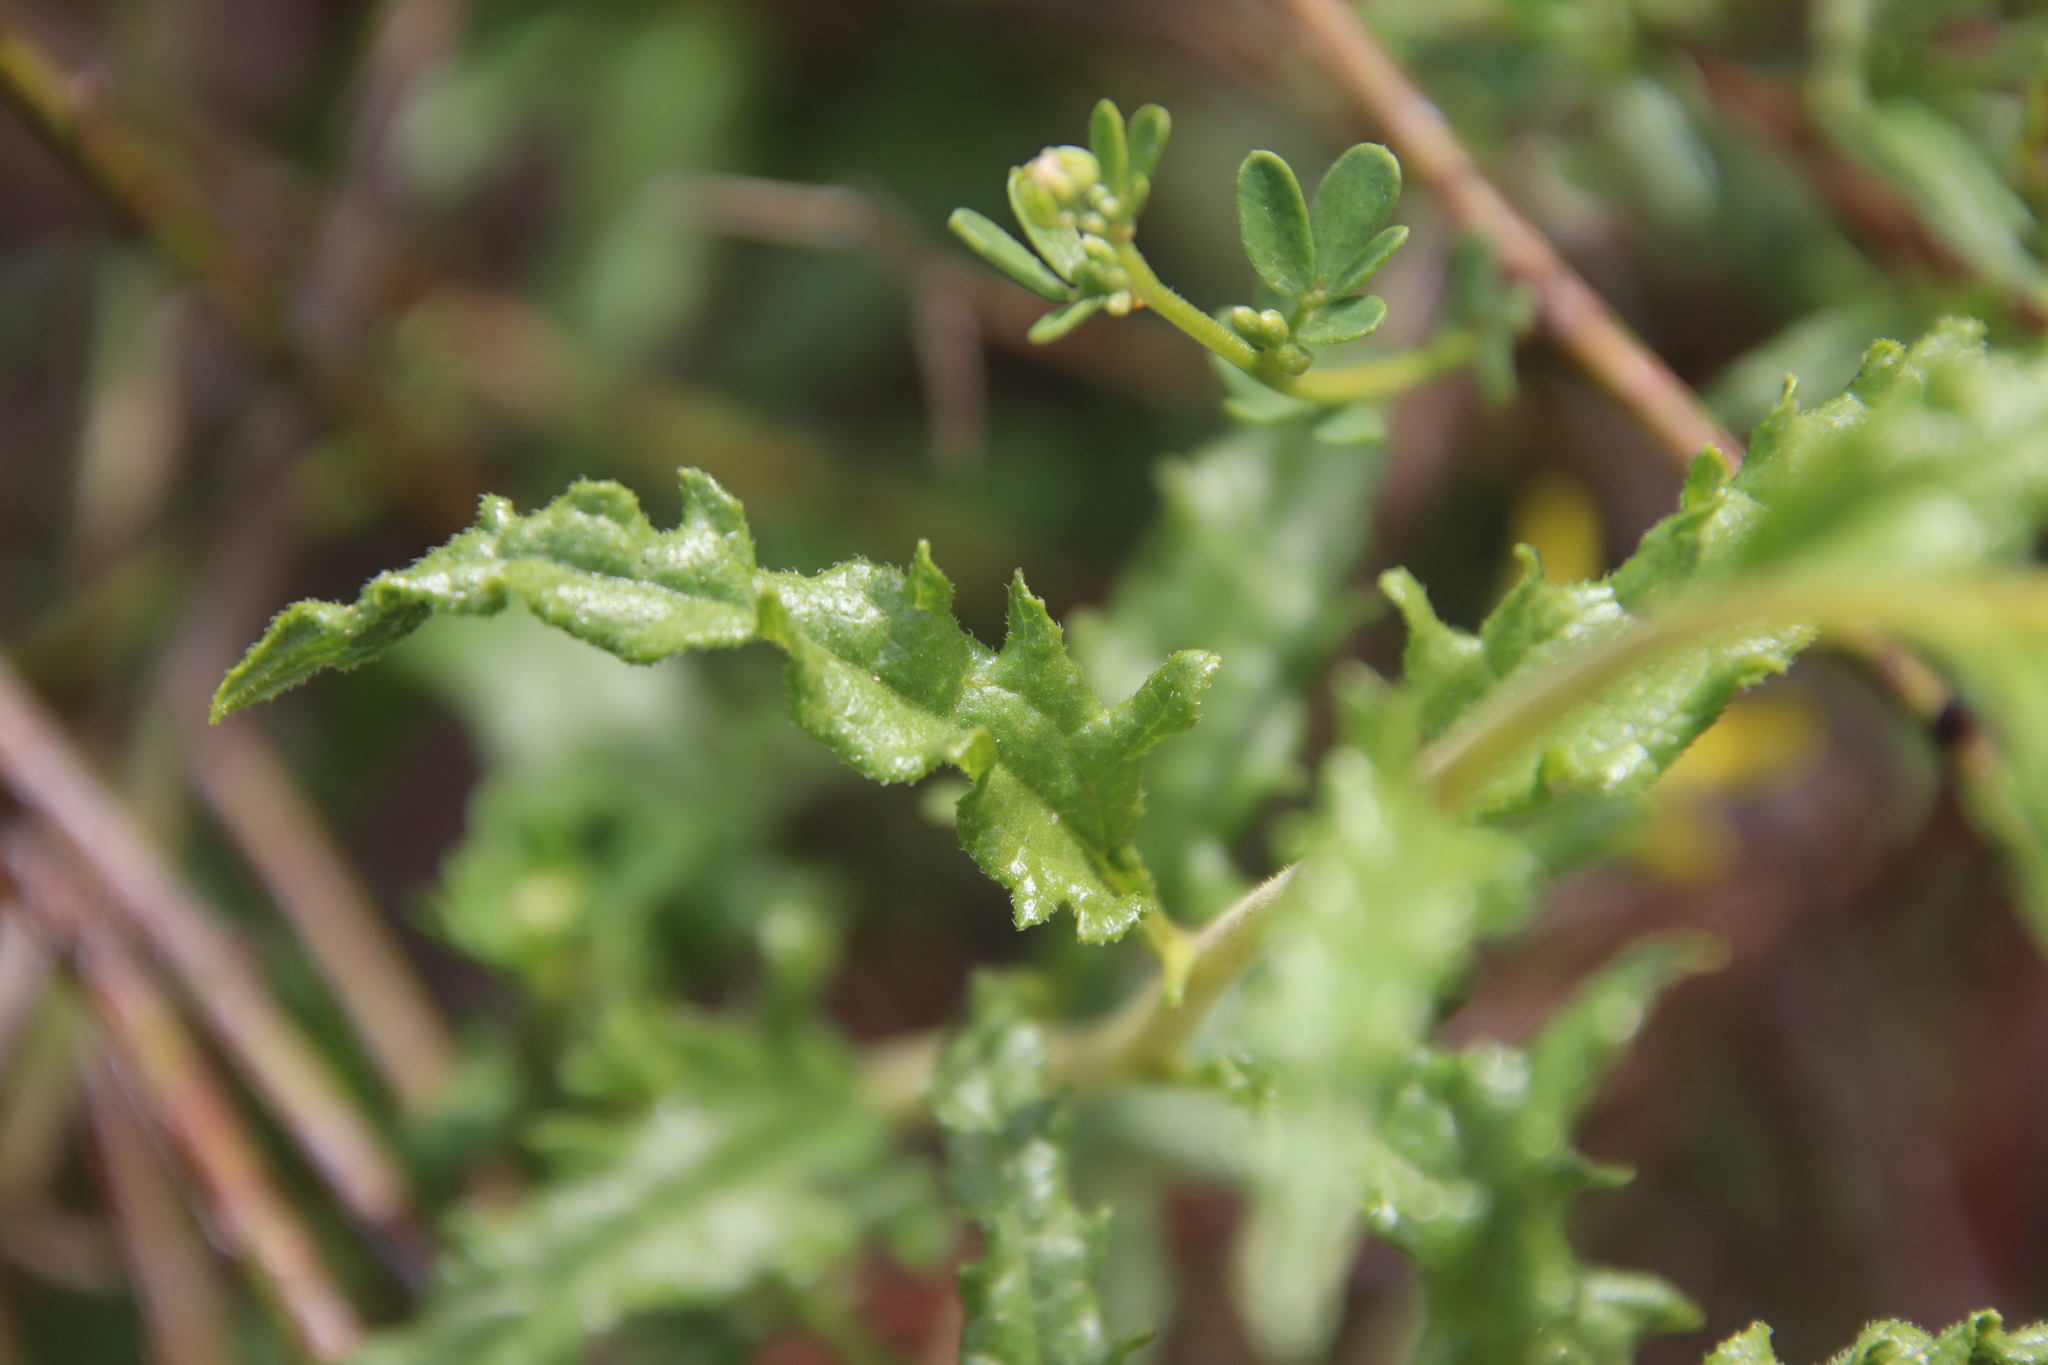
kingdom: Plantae
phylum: Tracheophyta
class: Magnoliopsida
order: Asterales
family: Asteraceae
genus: Bahiopsis
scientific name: Bahiopsis laciniata
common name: San diego county viguiera
